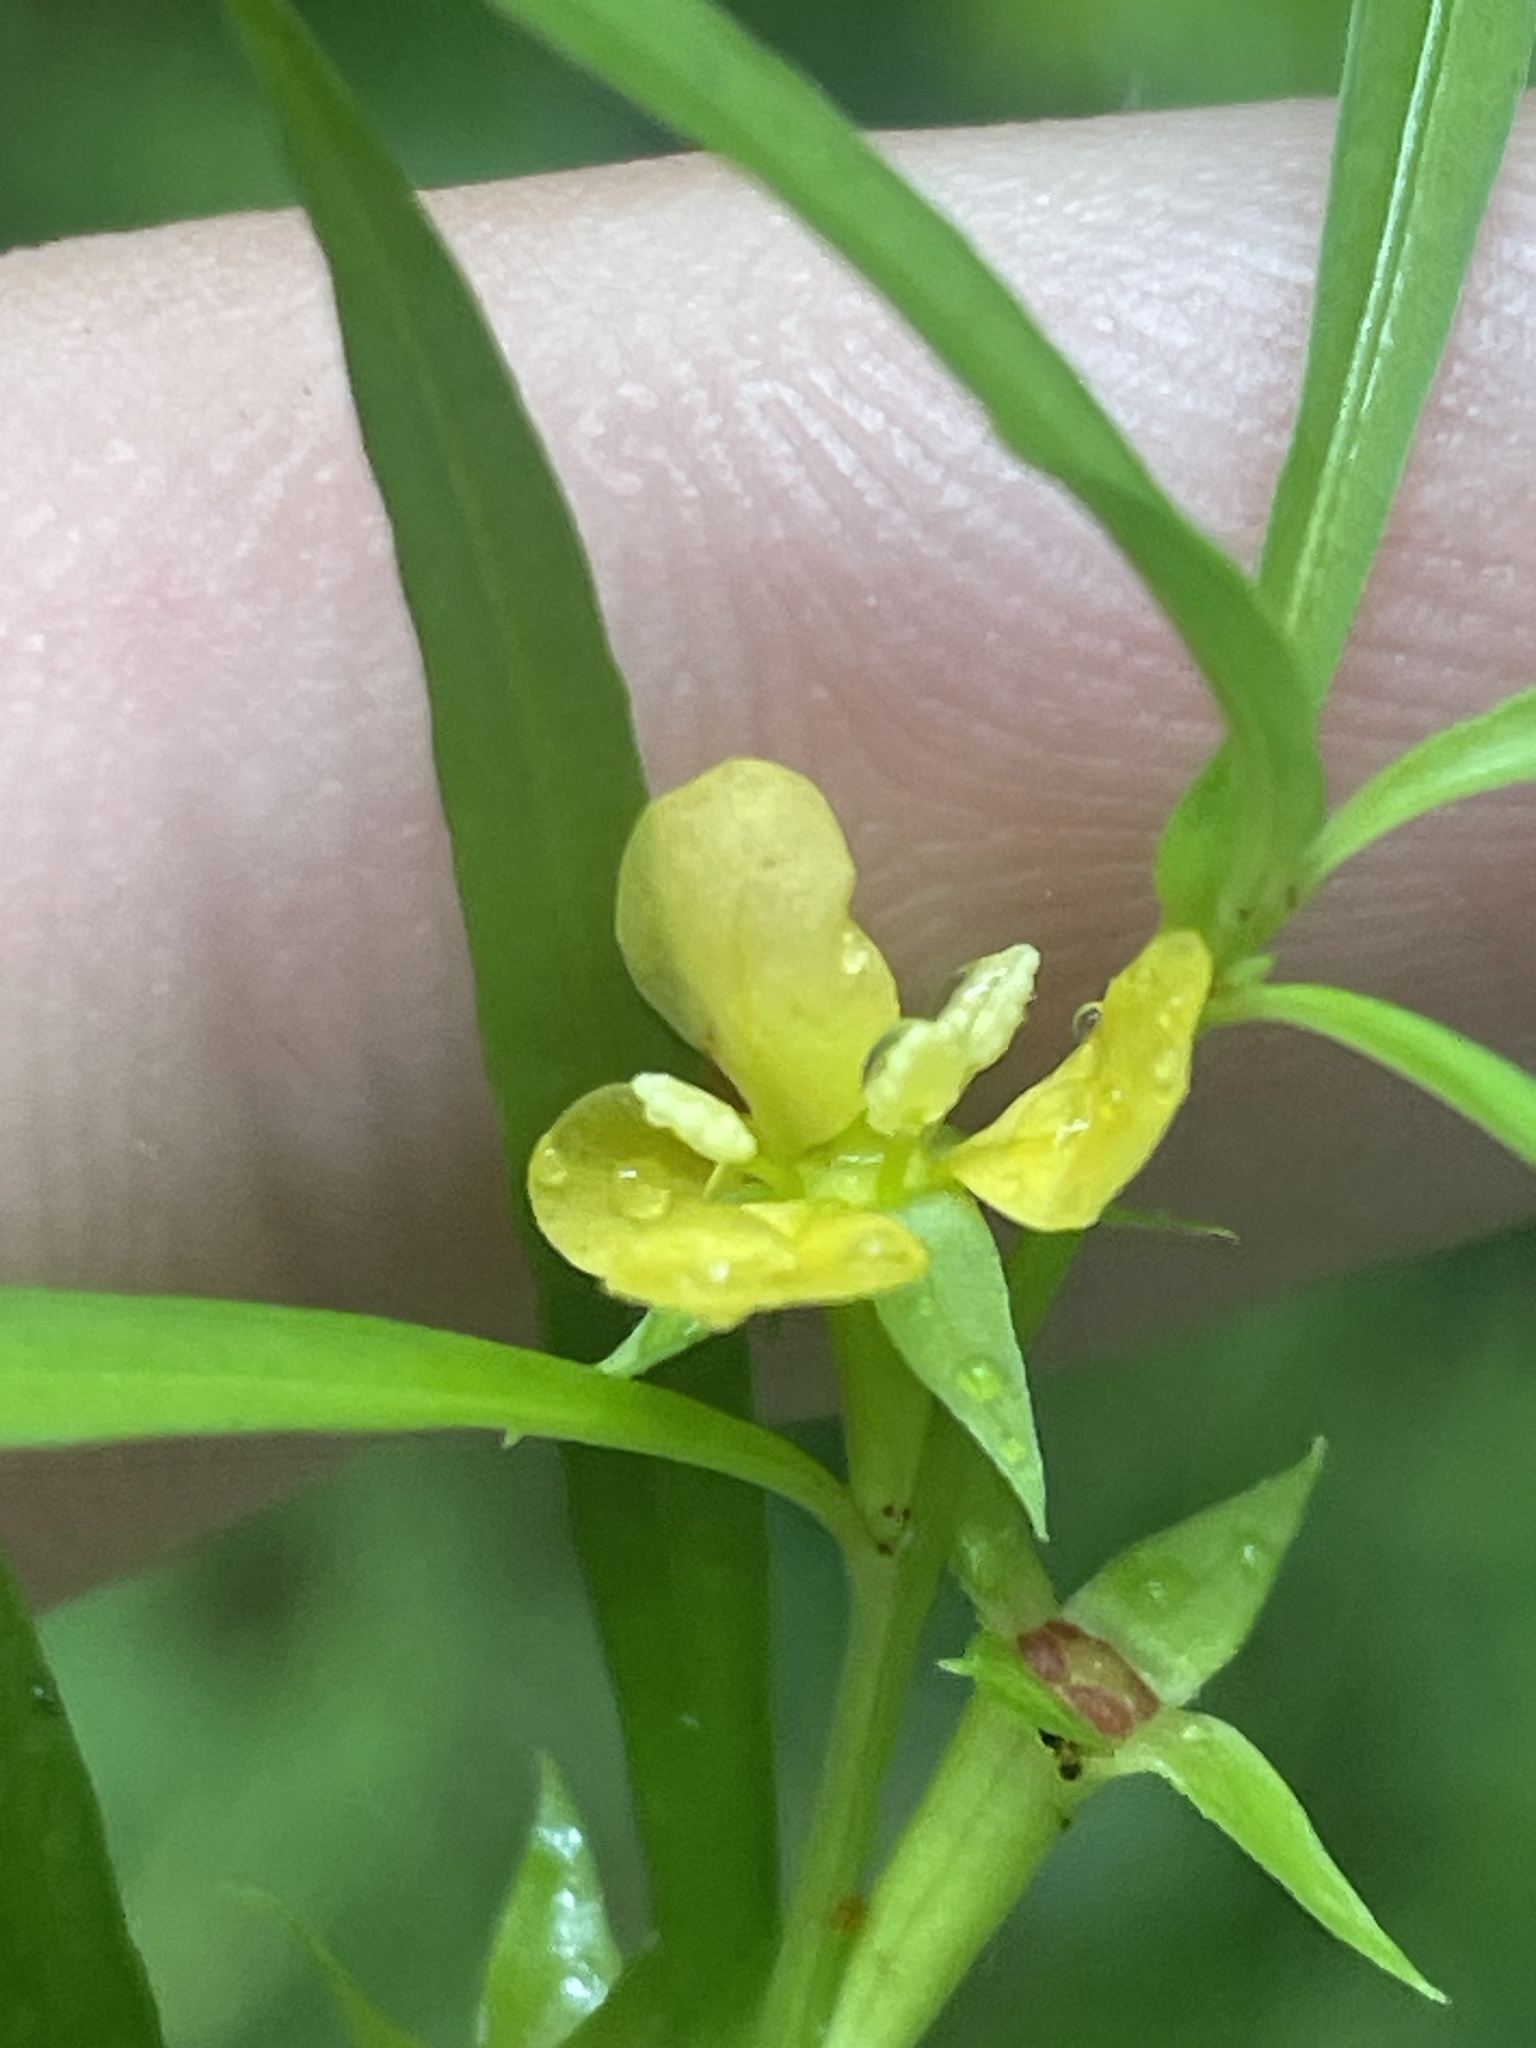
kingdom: Plantae
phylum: Tracheophyta
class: Magnoliopsida
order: Myrtales
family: Onagraceae
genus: Ludwigia
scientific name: Ludwigia linearis
